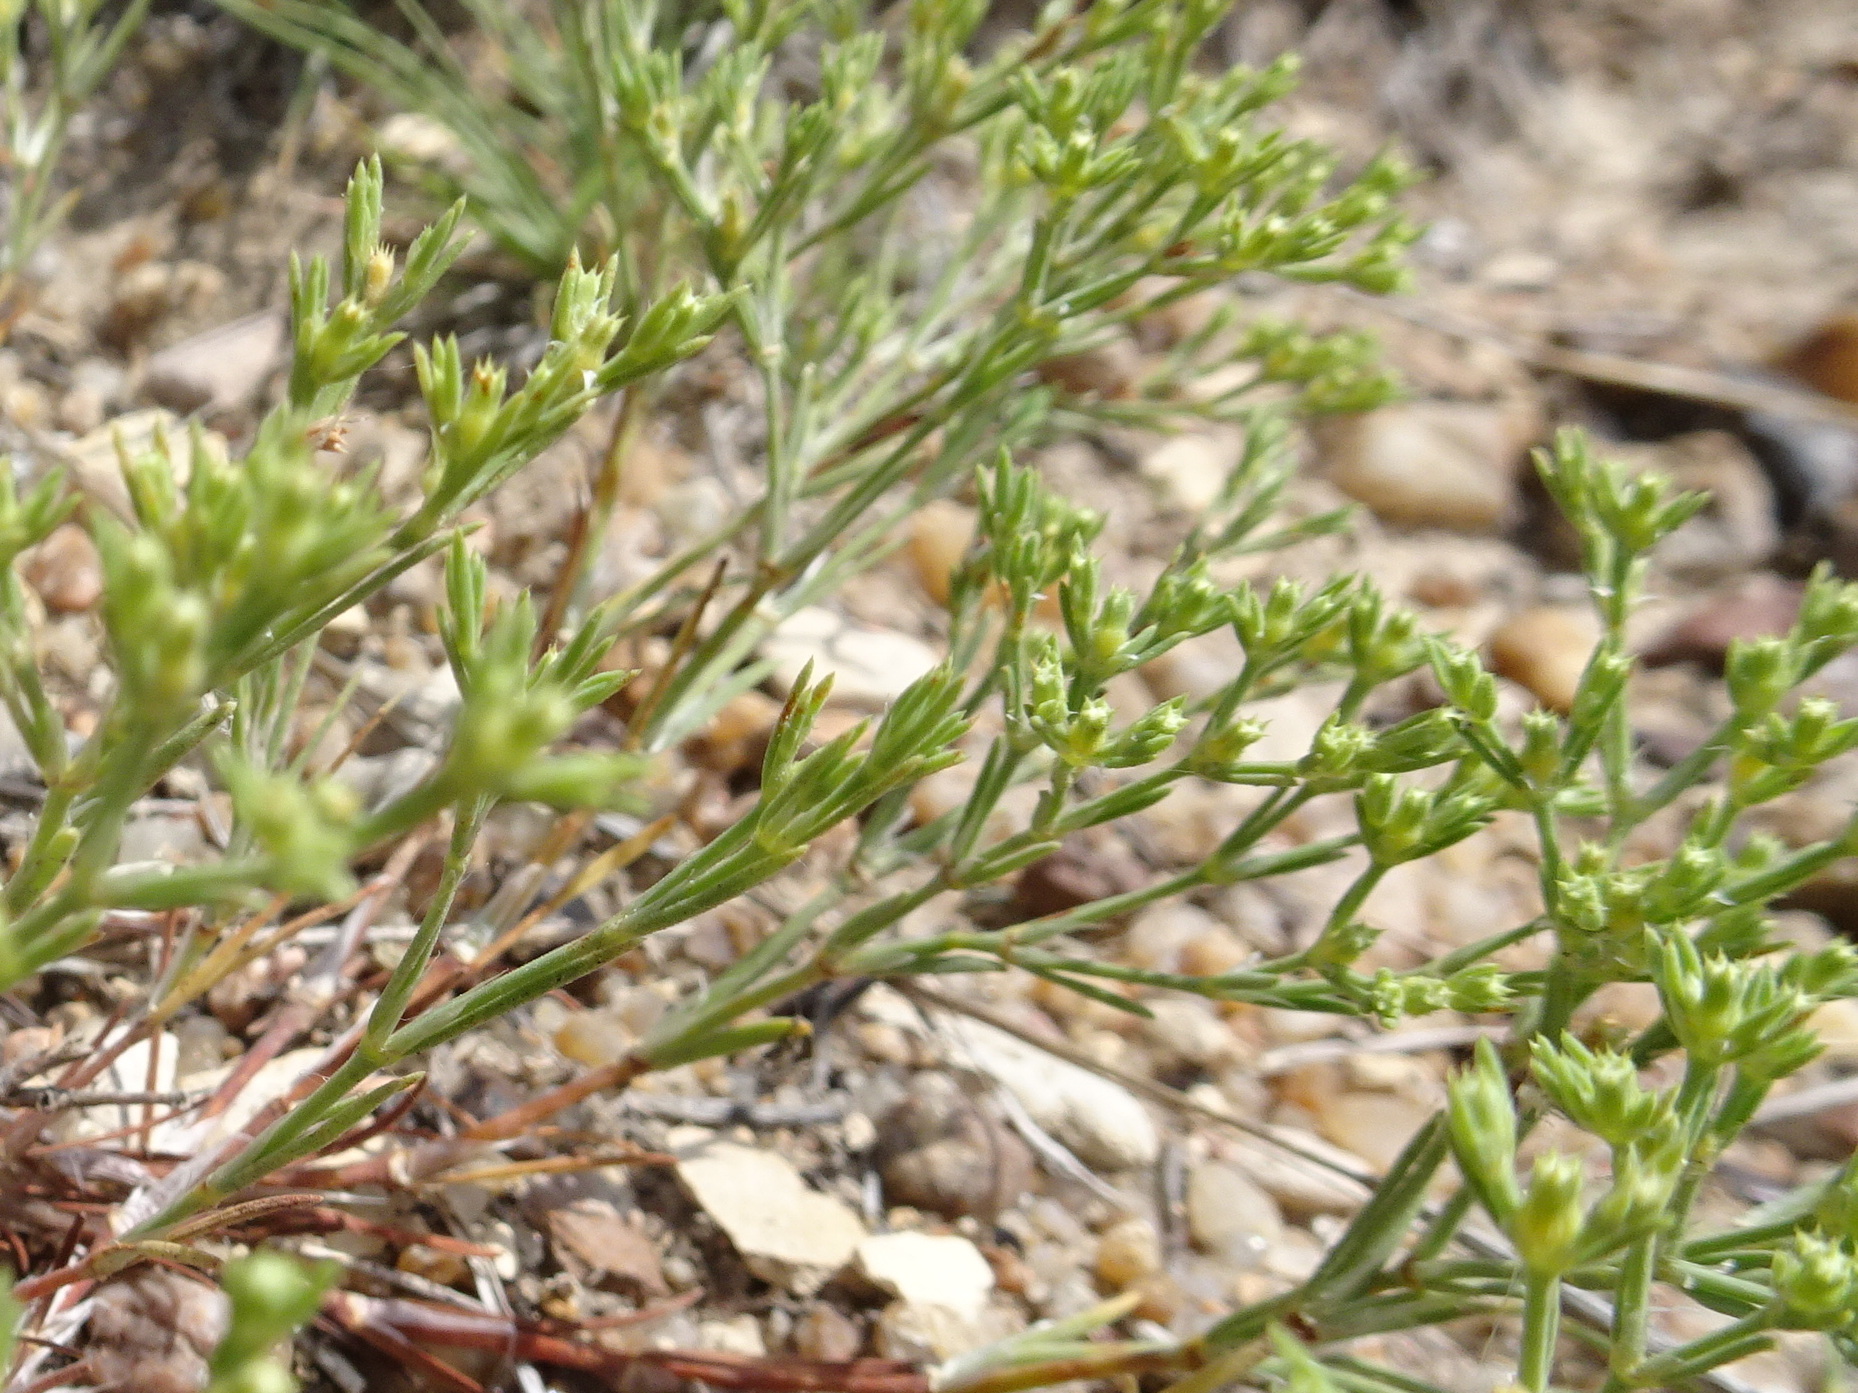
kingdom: Plantae
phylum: Tracheophyta
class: Magnoliopsida
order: Caryophyllales
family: Caryophyllaceae
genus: Paronychia
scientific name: Paronychia jamesii
